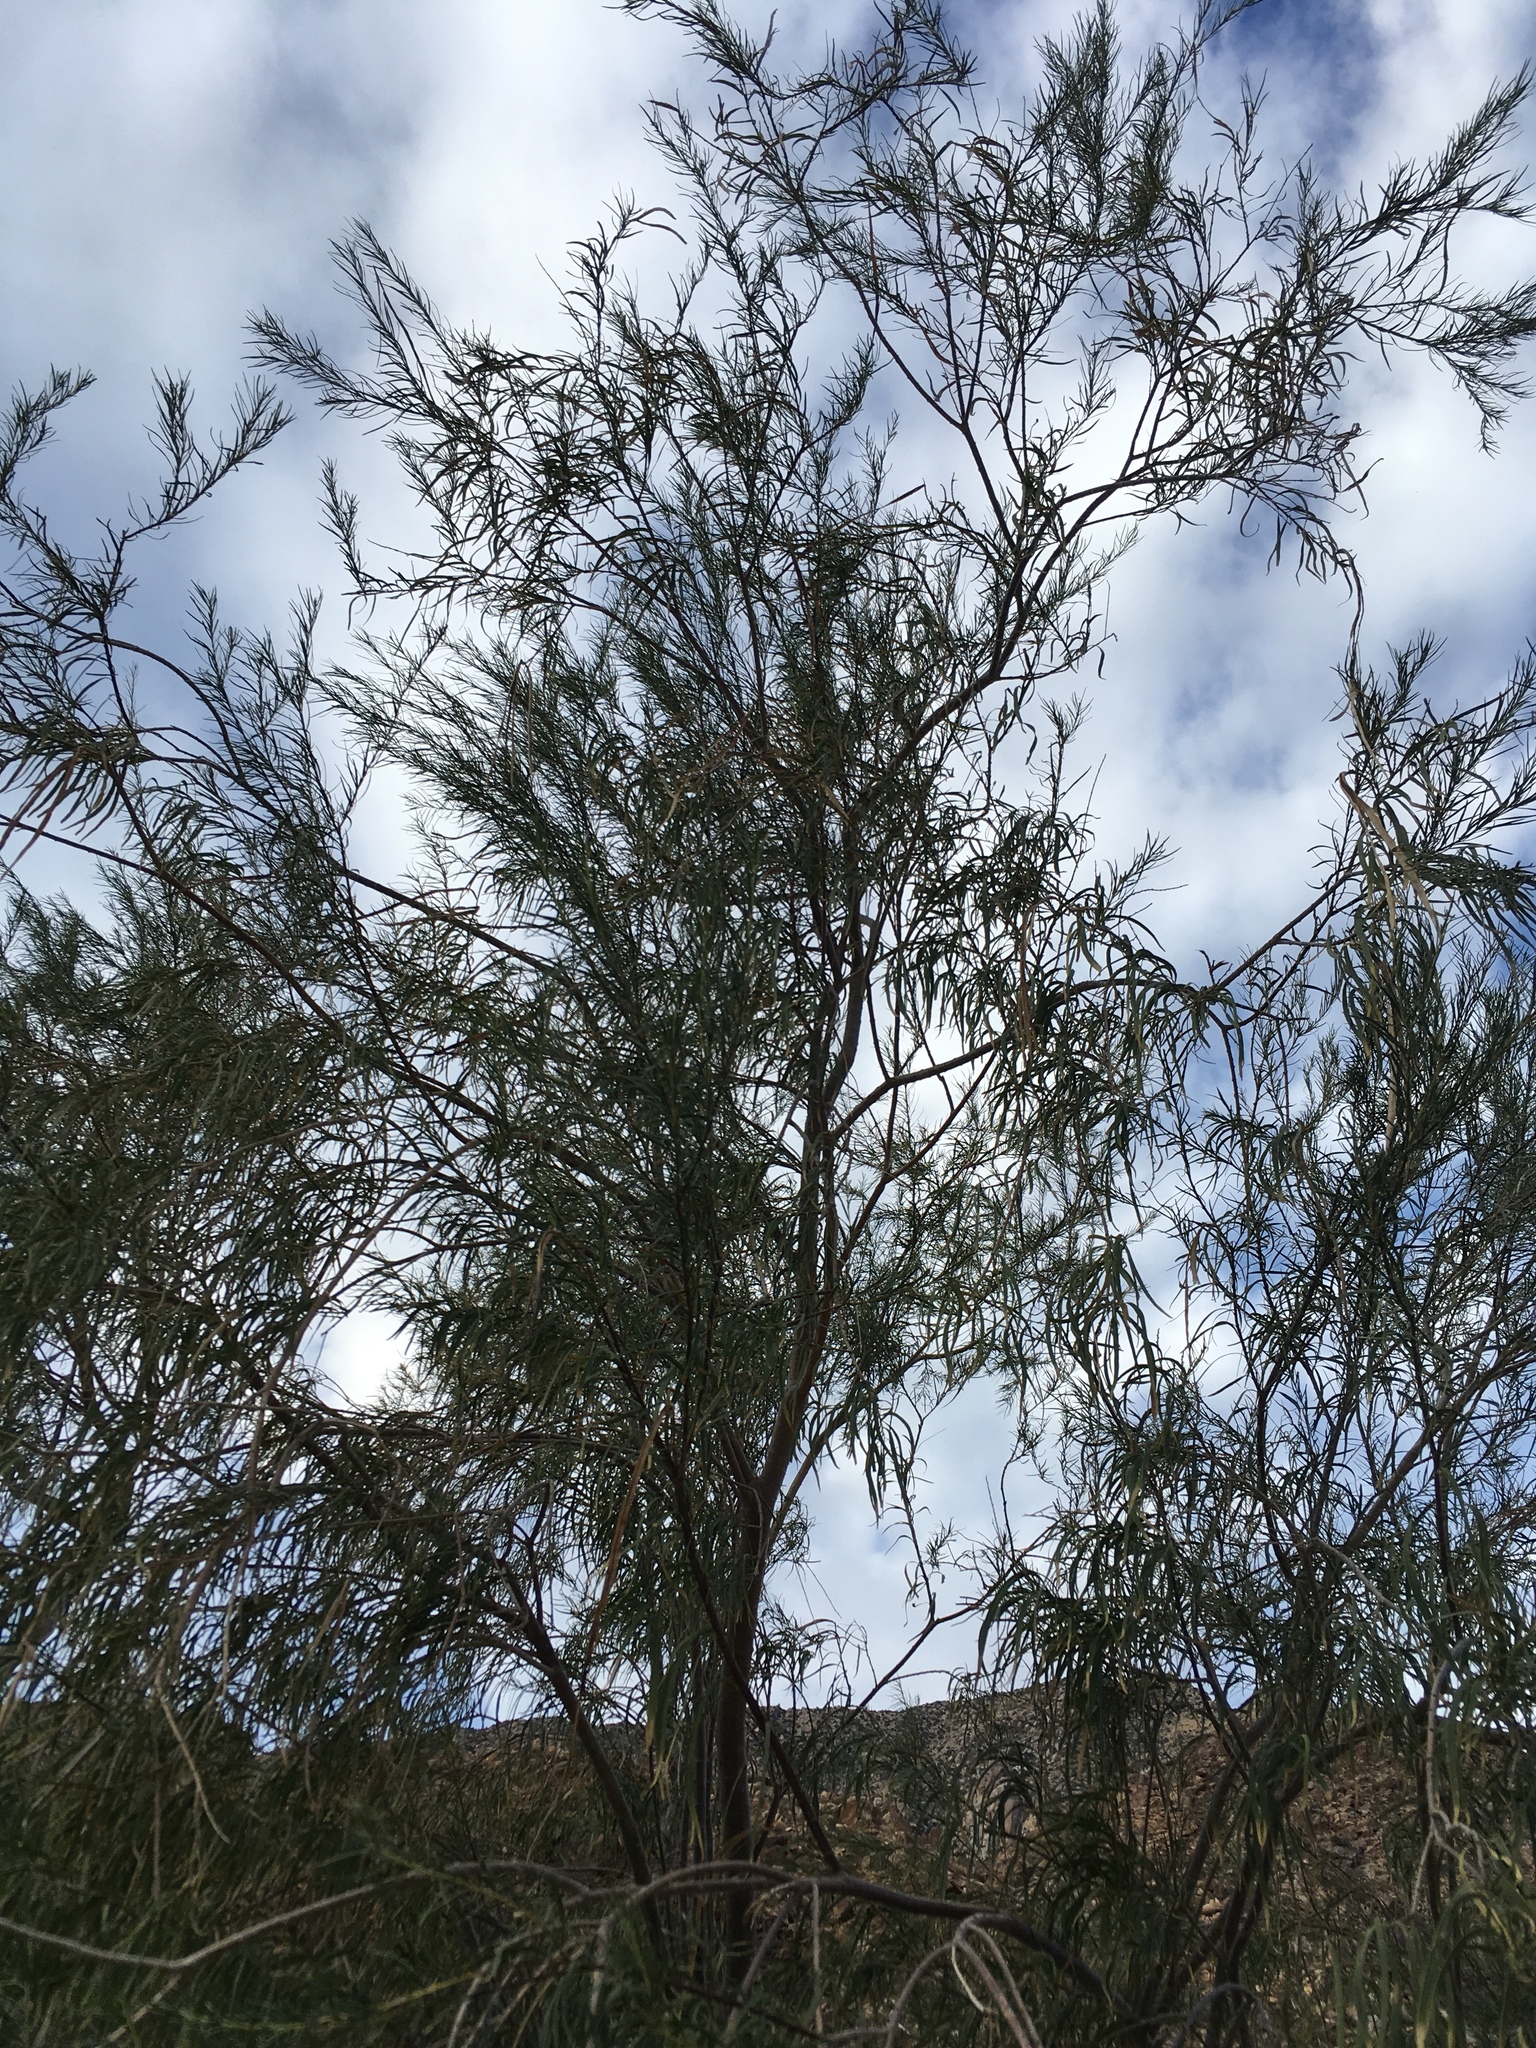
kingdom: Plantae
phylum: Tracheophyta
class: Magnoliopsida
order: Lamiales
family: Bignoniaceae
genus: Chilopsis
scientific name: Chilopsis linearis
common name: Desert-willow
